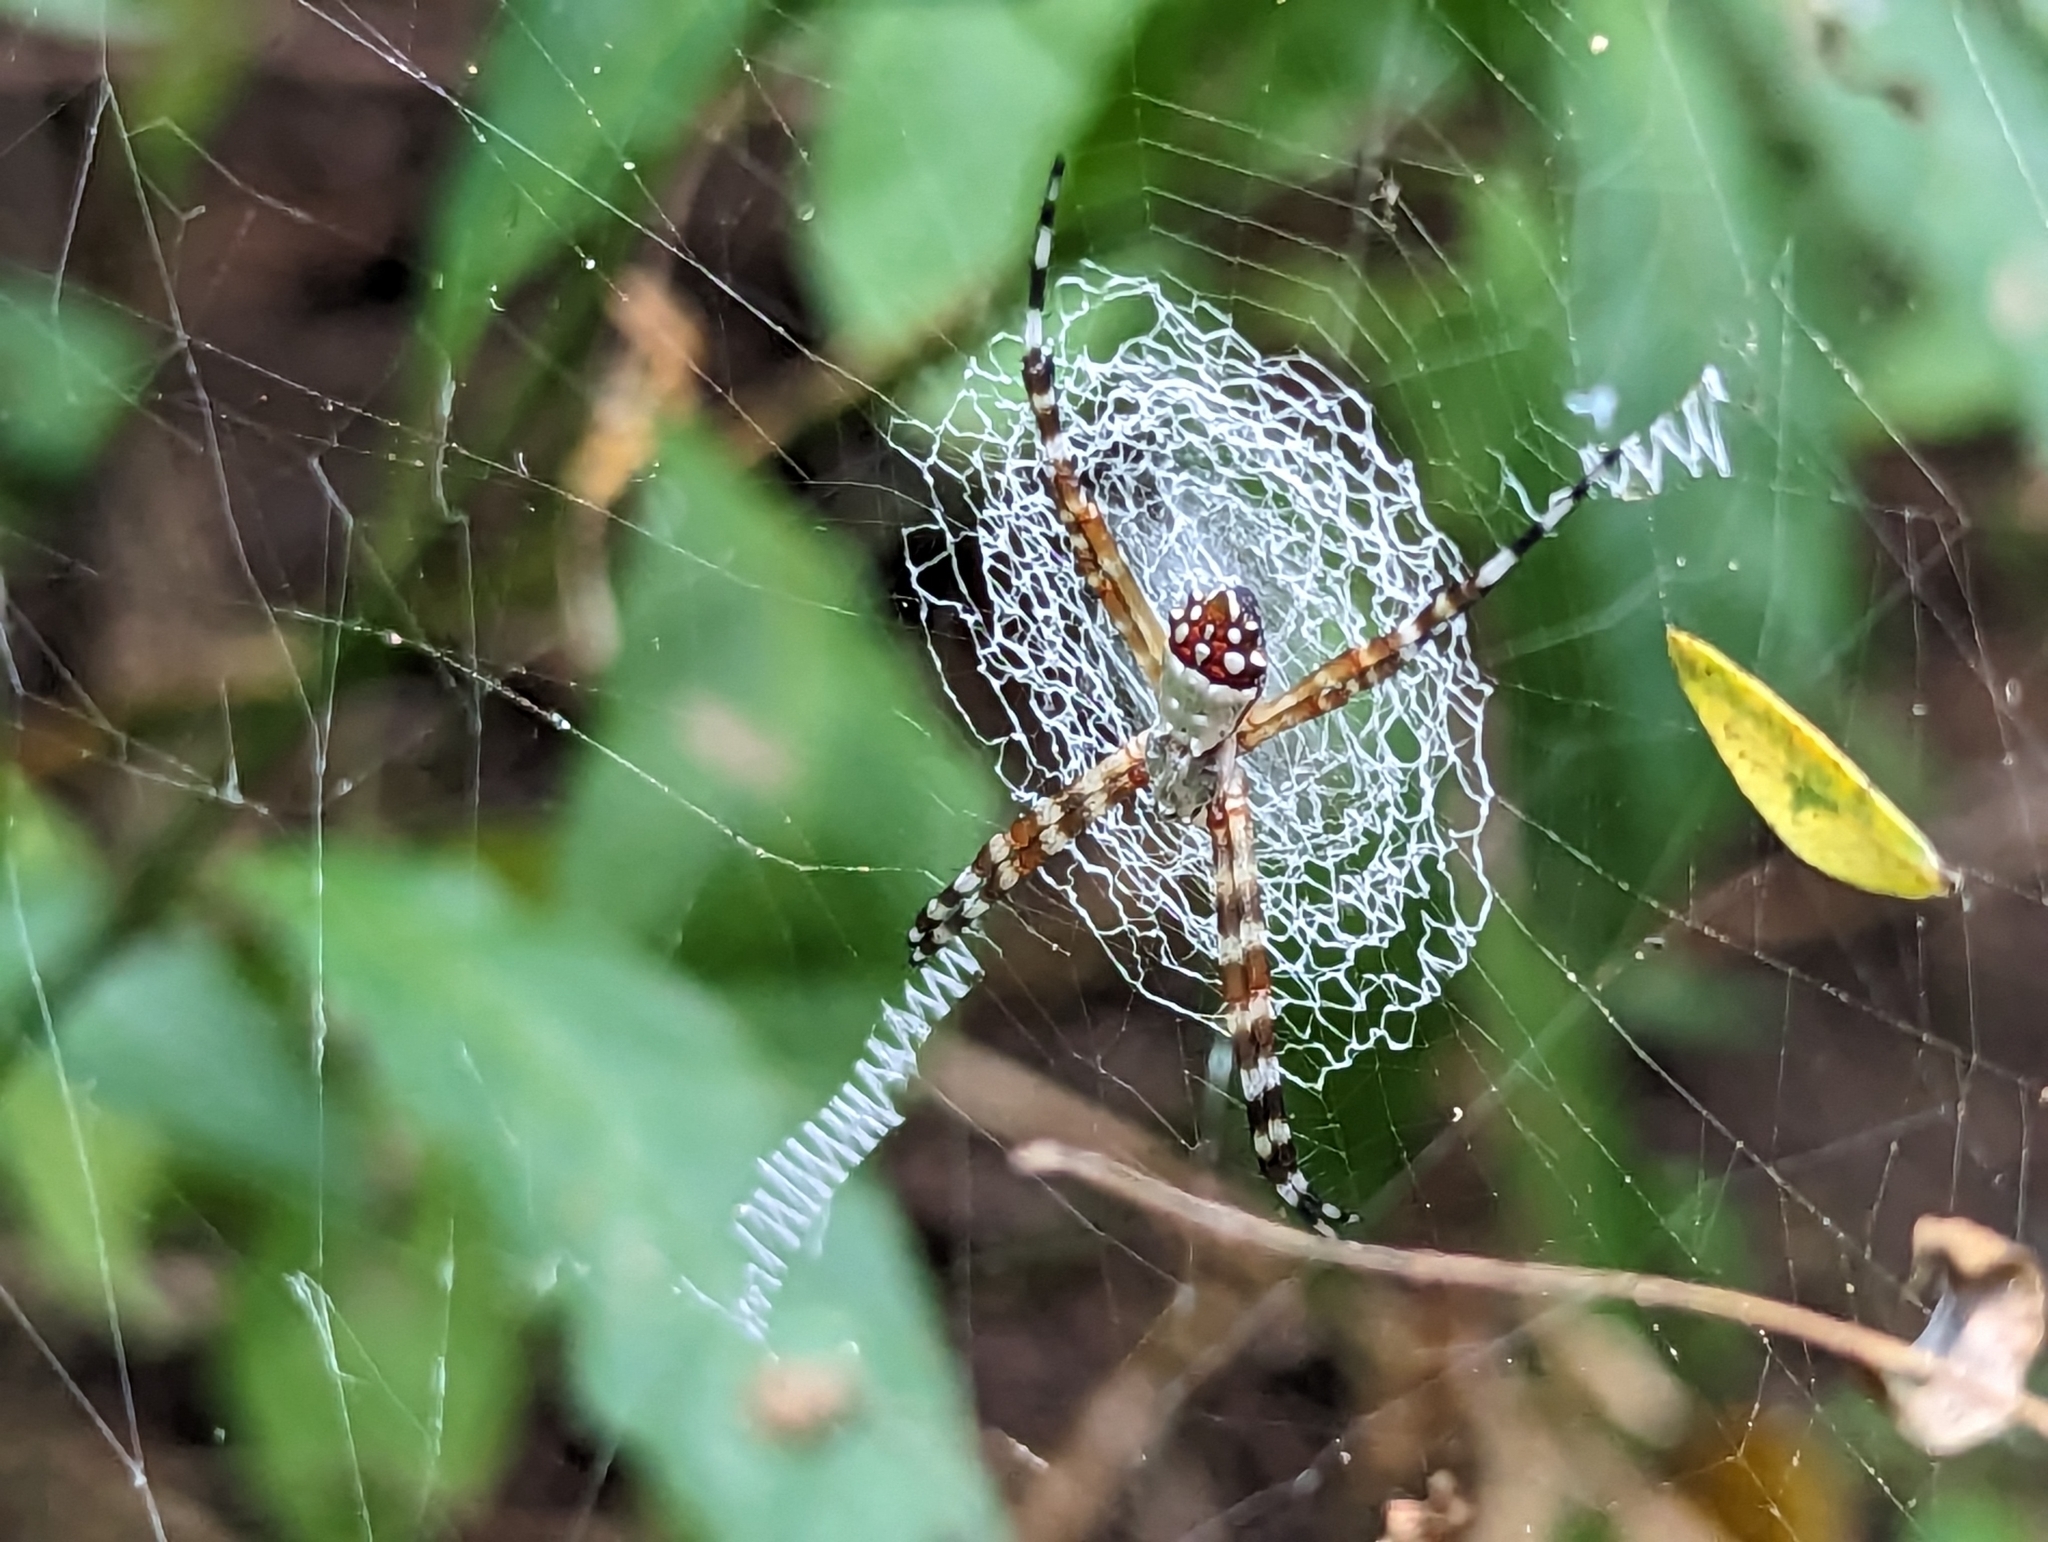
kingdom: Animalia
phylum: Arthropoda
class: Arachnida
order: Araneae
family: Araneidae
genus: Argiope
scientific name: Argiope argentata
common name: Orb weavers
